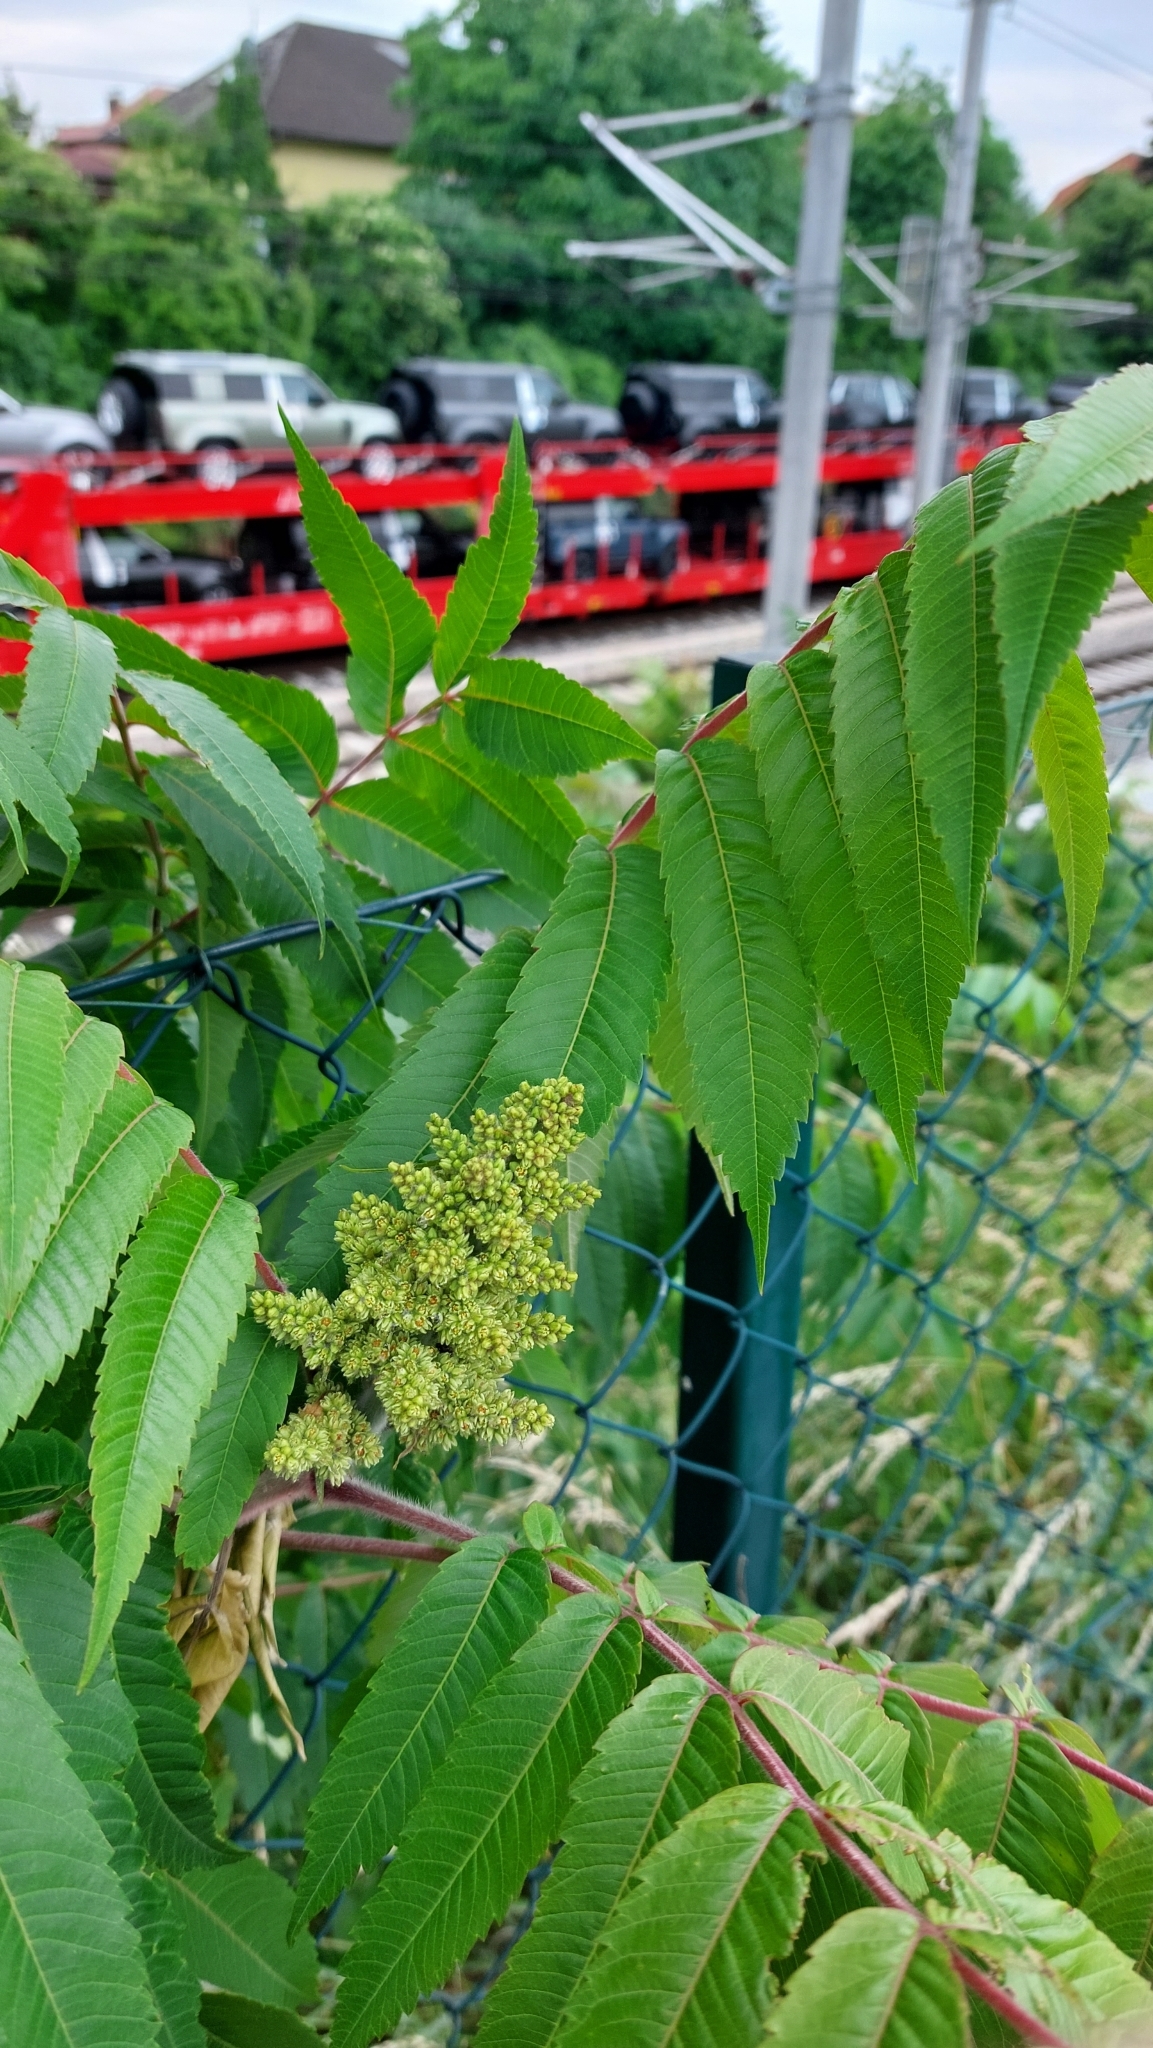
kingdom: Plantae
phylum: Tracheophyta
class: Magnoliopsida
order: Sapindales
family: Anacardiaceae
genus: Rhus
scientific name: Rhus typhina
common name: Staghorn sumac
